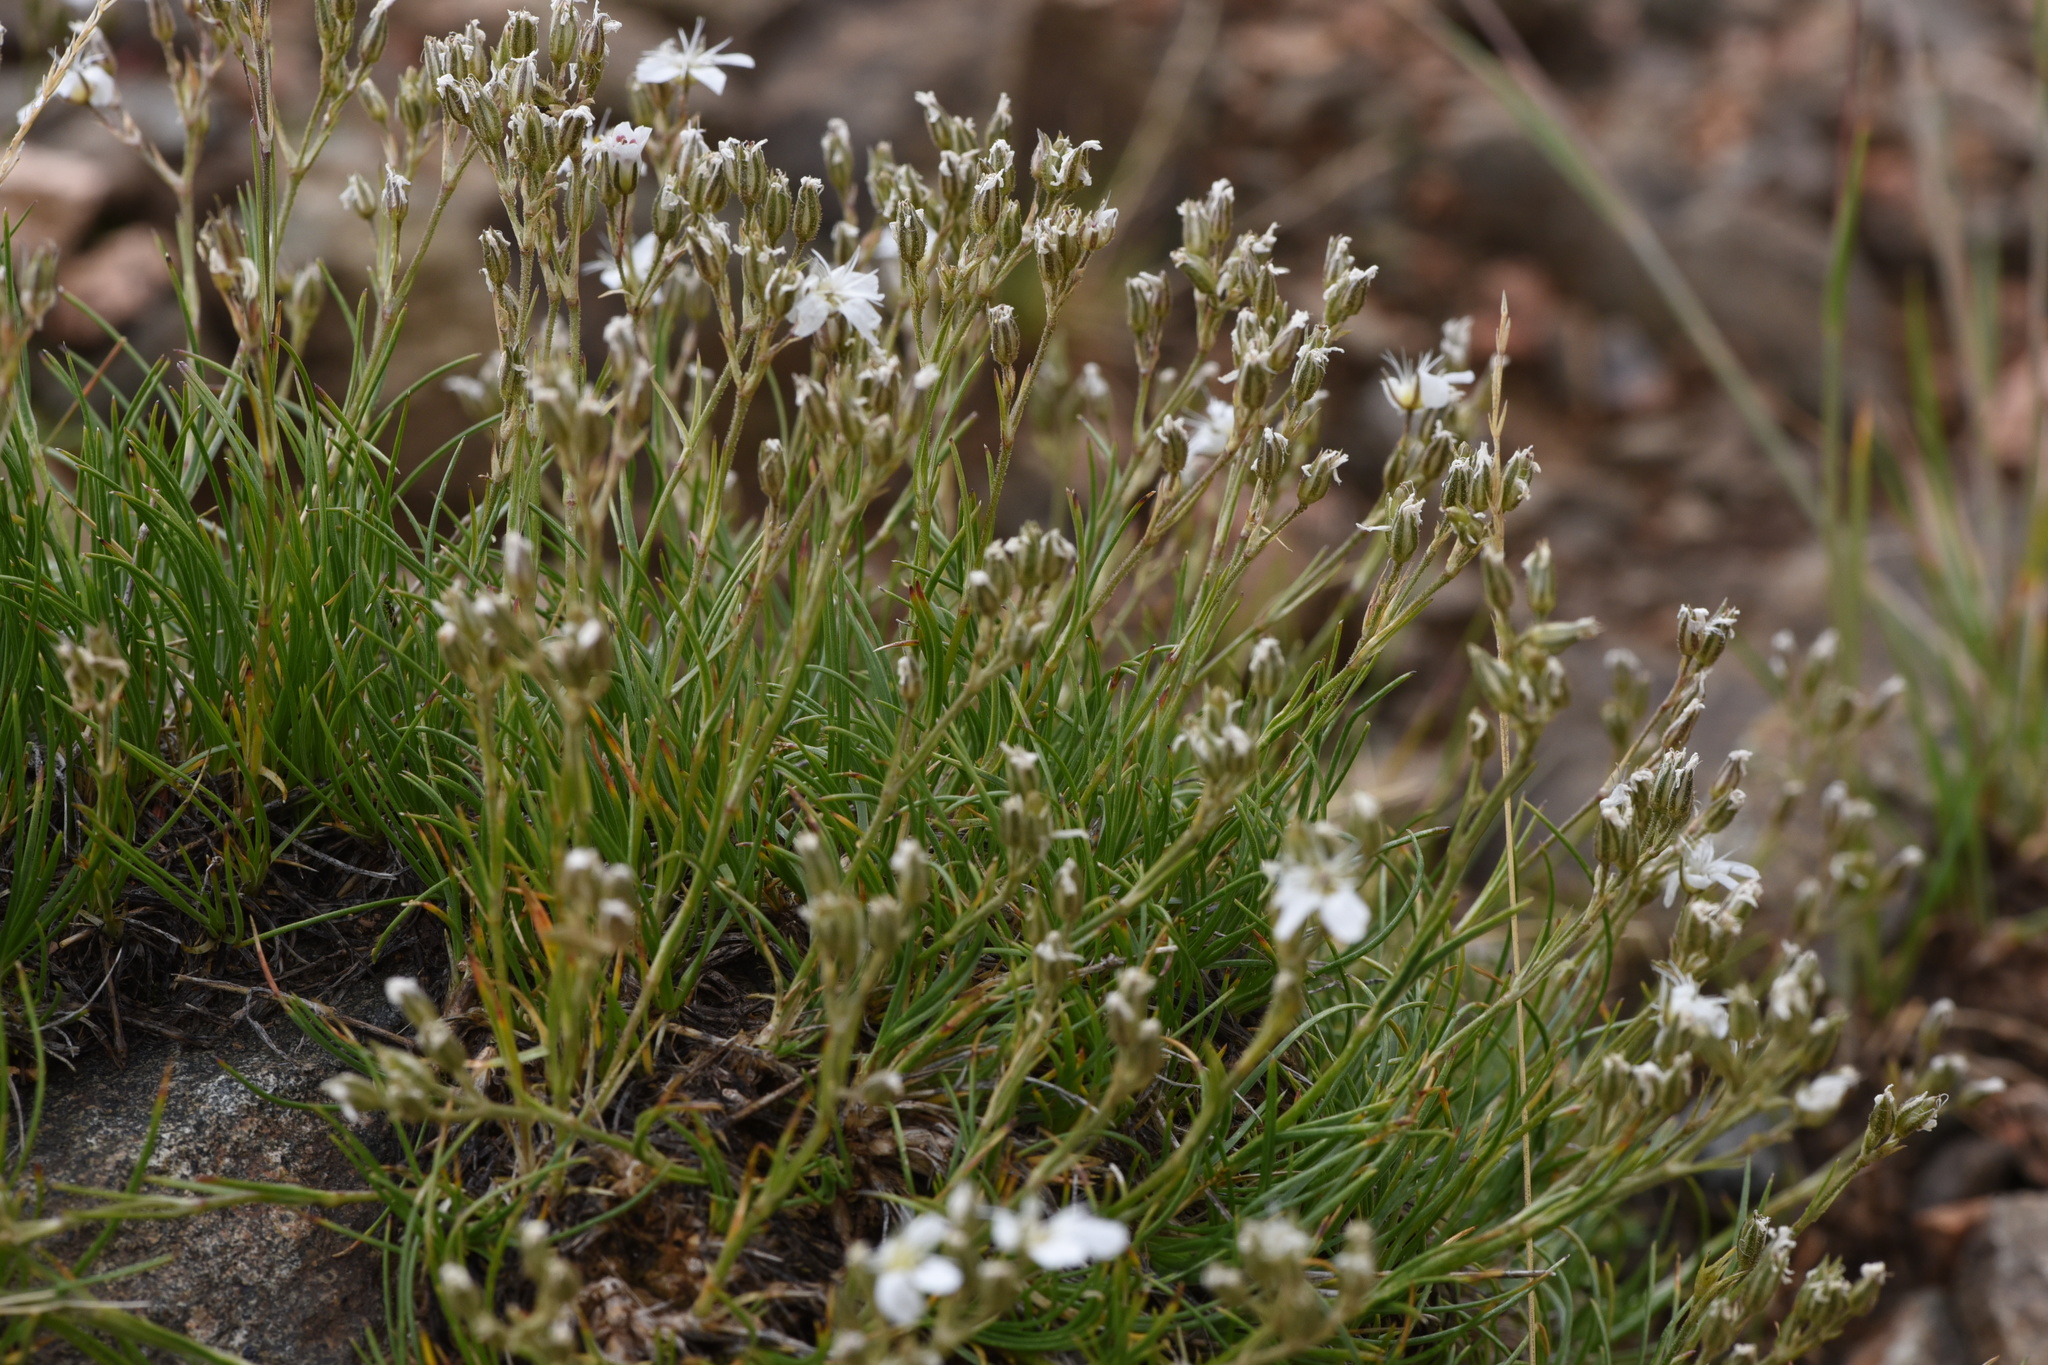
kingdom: Plantae
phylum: Tracheophyta
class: Magnoliopsida
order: Caryophyllales
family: Caryophyllaceae
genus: Eremogone
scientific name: Eremogone fendleri
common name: Fendler's sandwort
